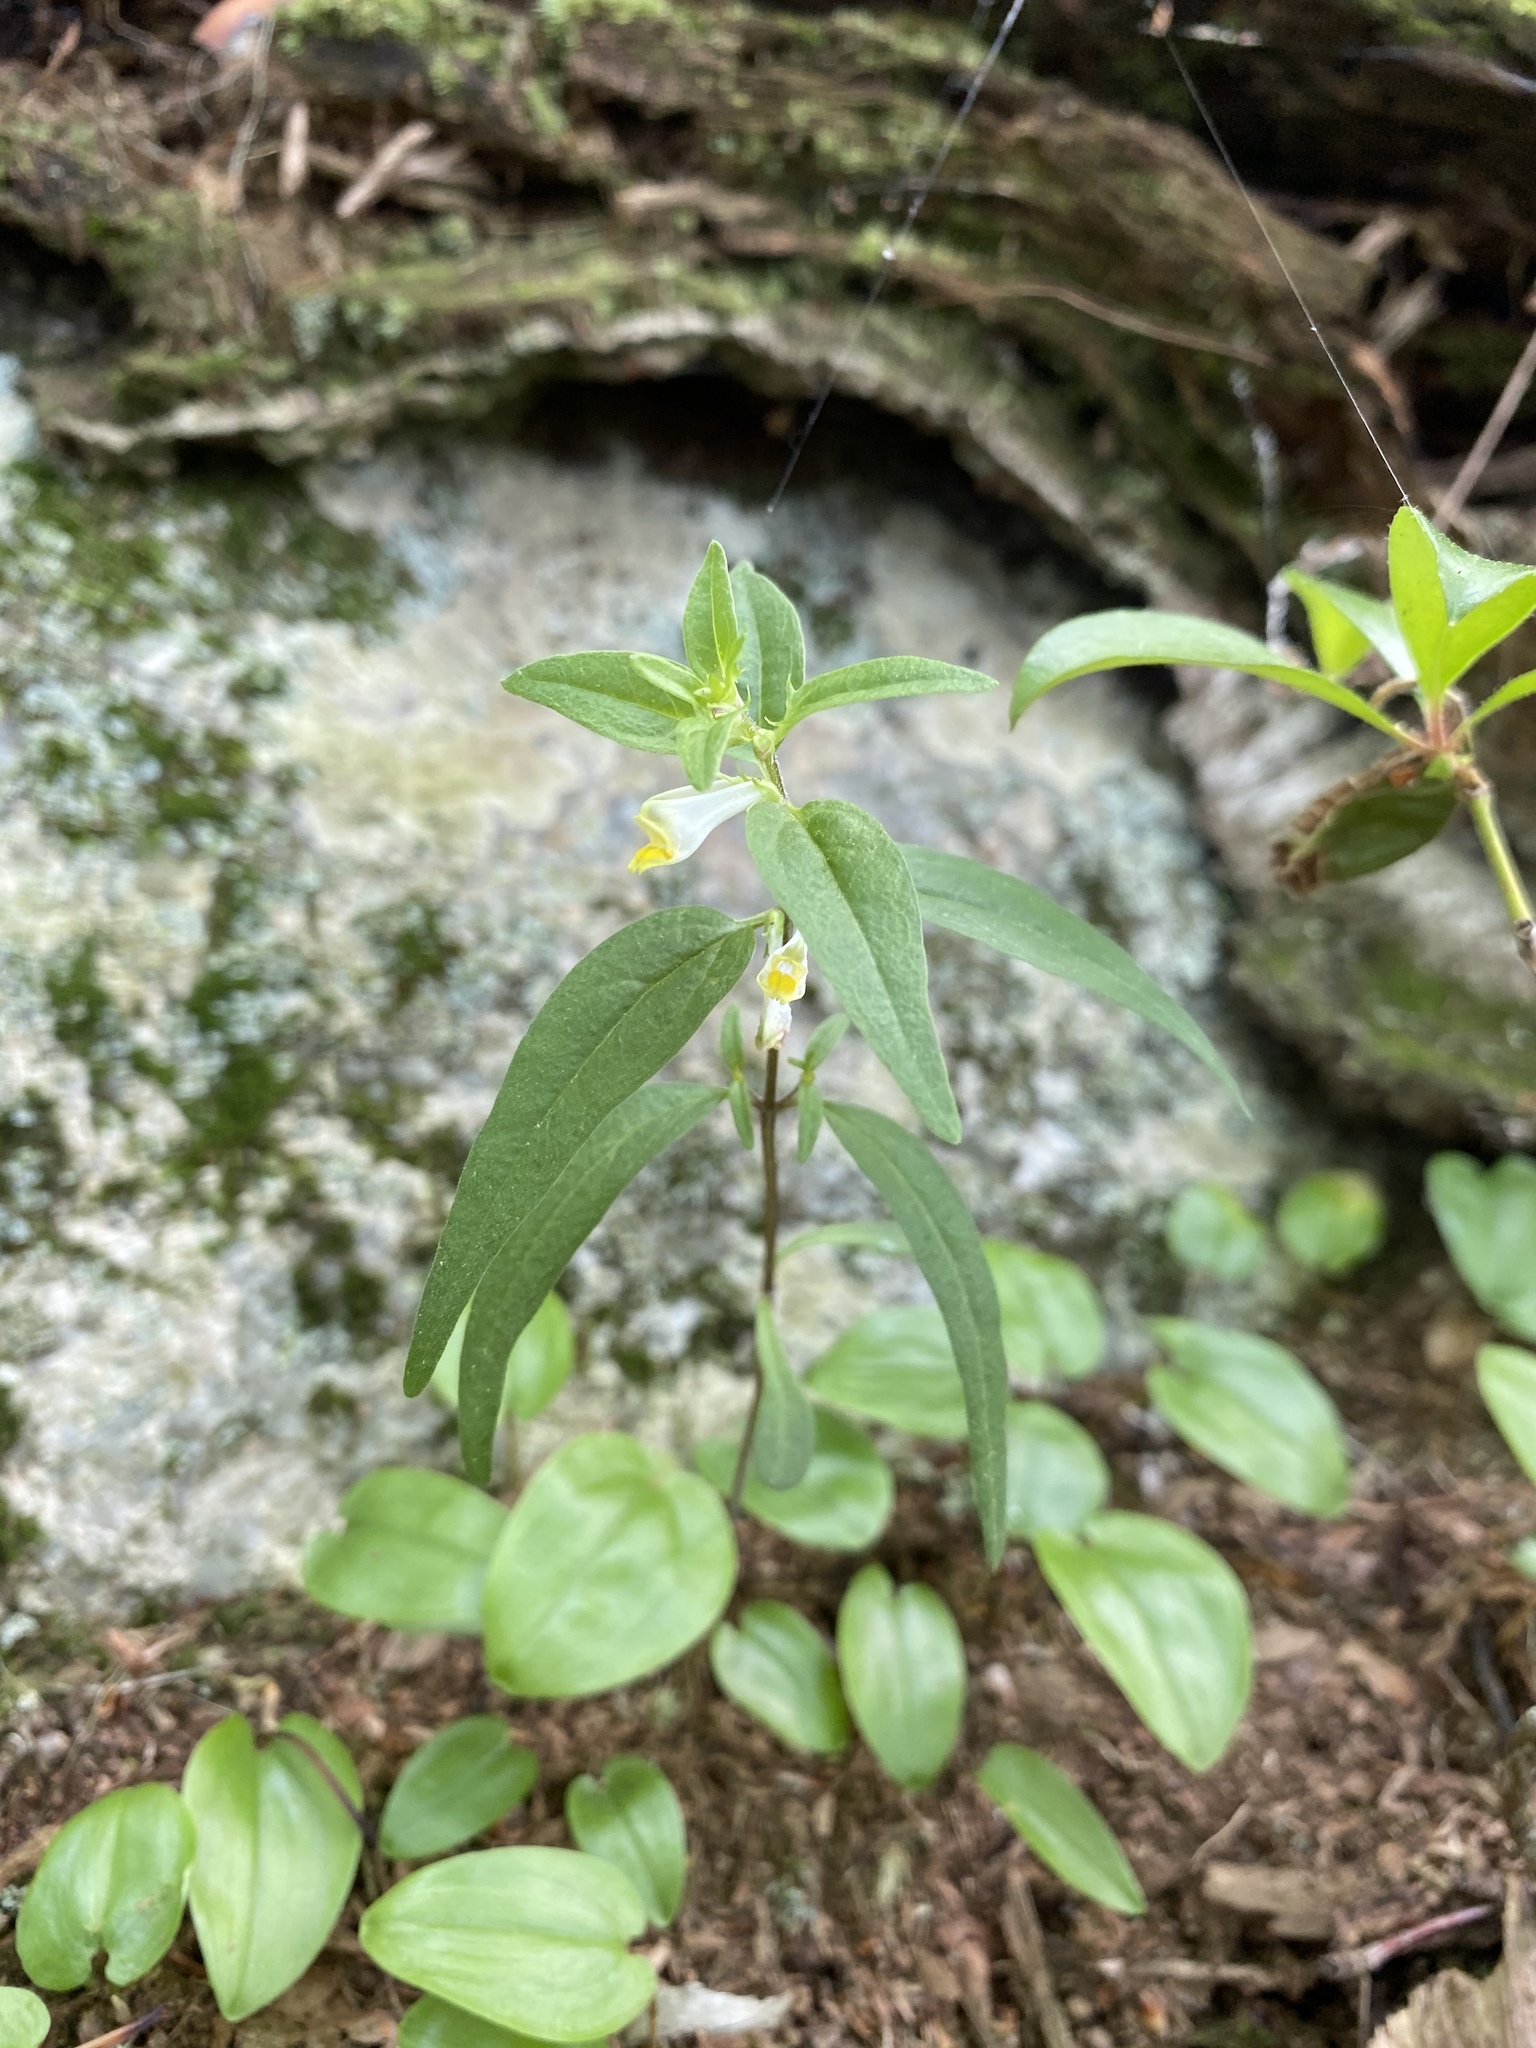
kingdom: Plantae
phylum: Tracheophyta
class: Magnoliopsida
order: Lamiales
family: Orobanchaceae
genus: Melampyrum
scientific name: Melampyrum lineare
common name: American cow-wheat
